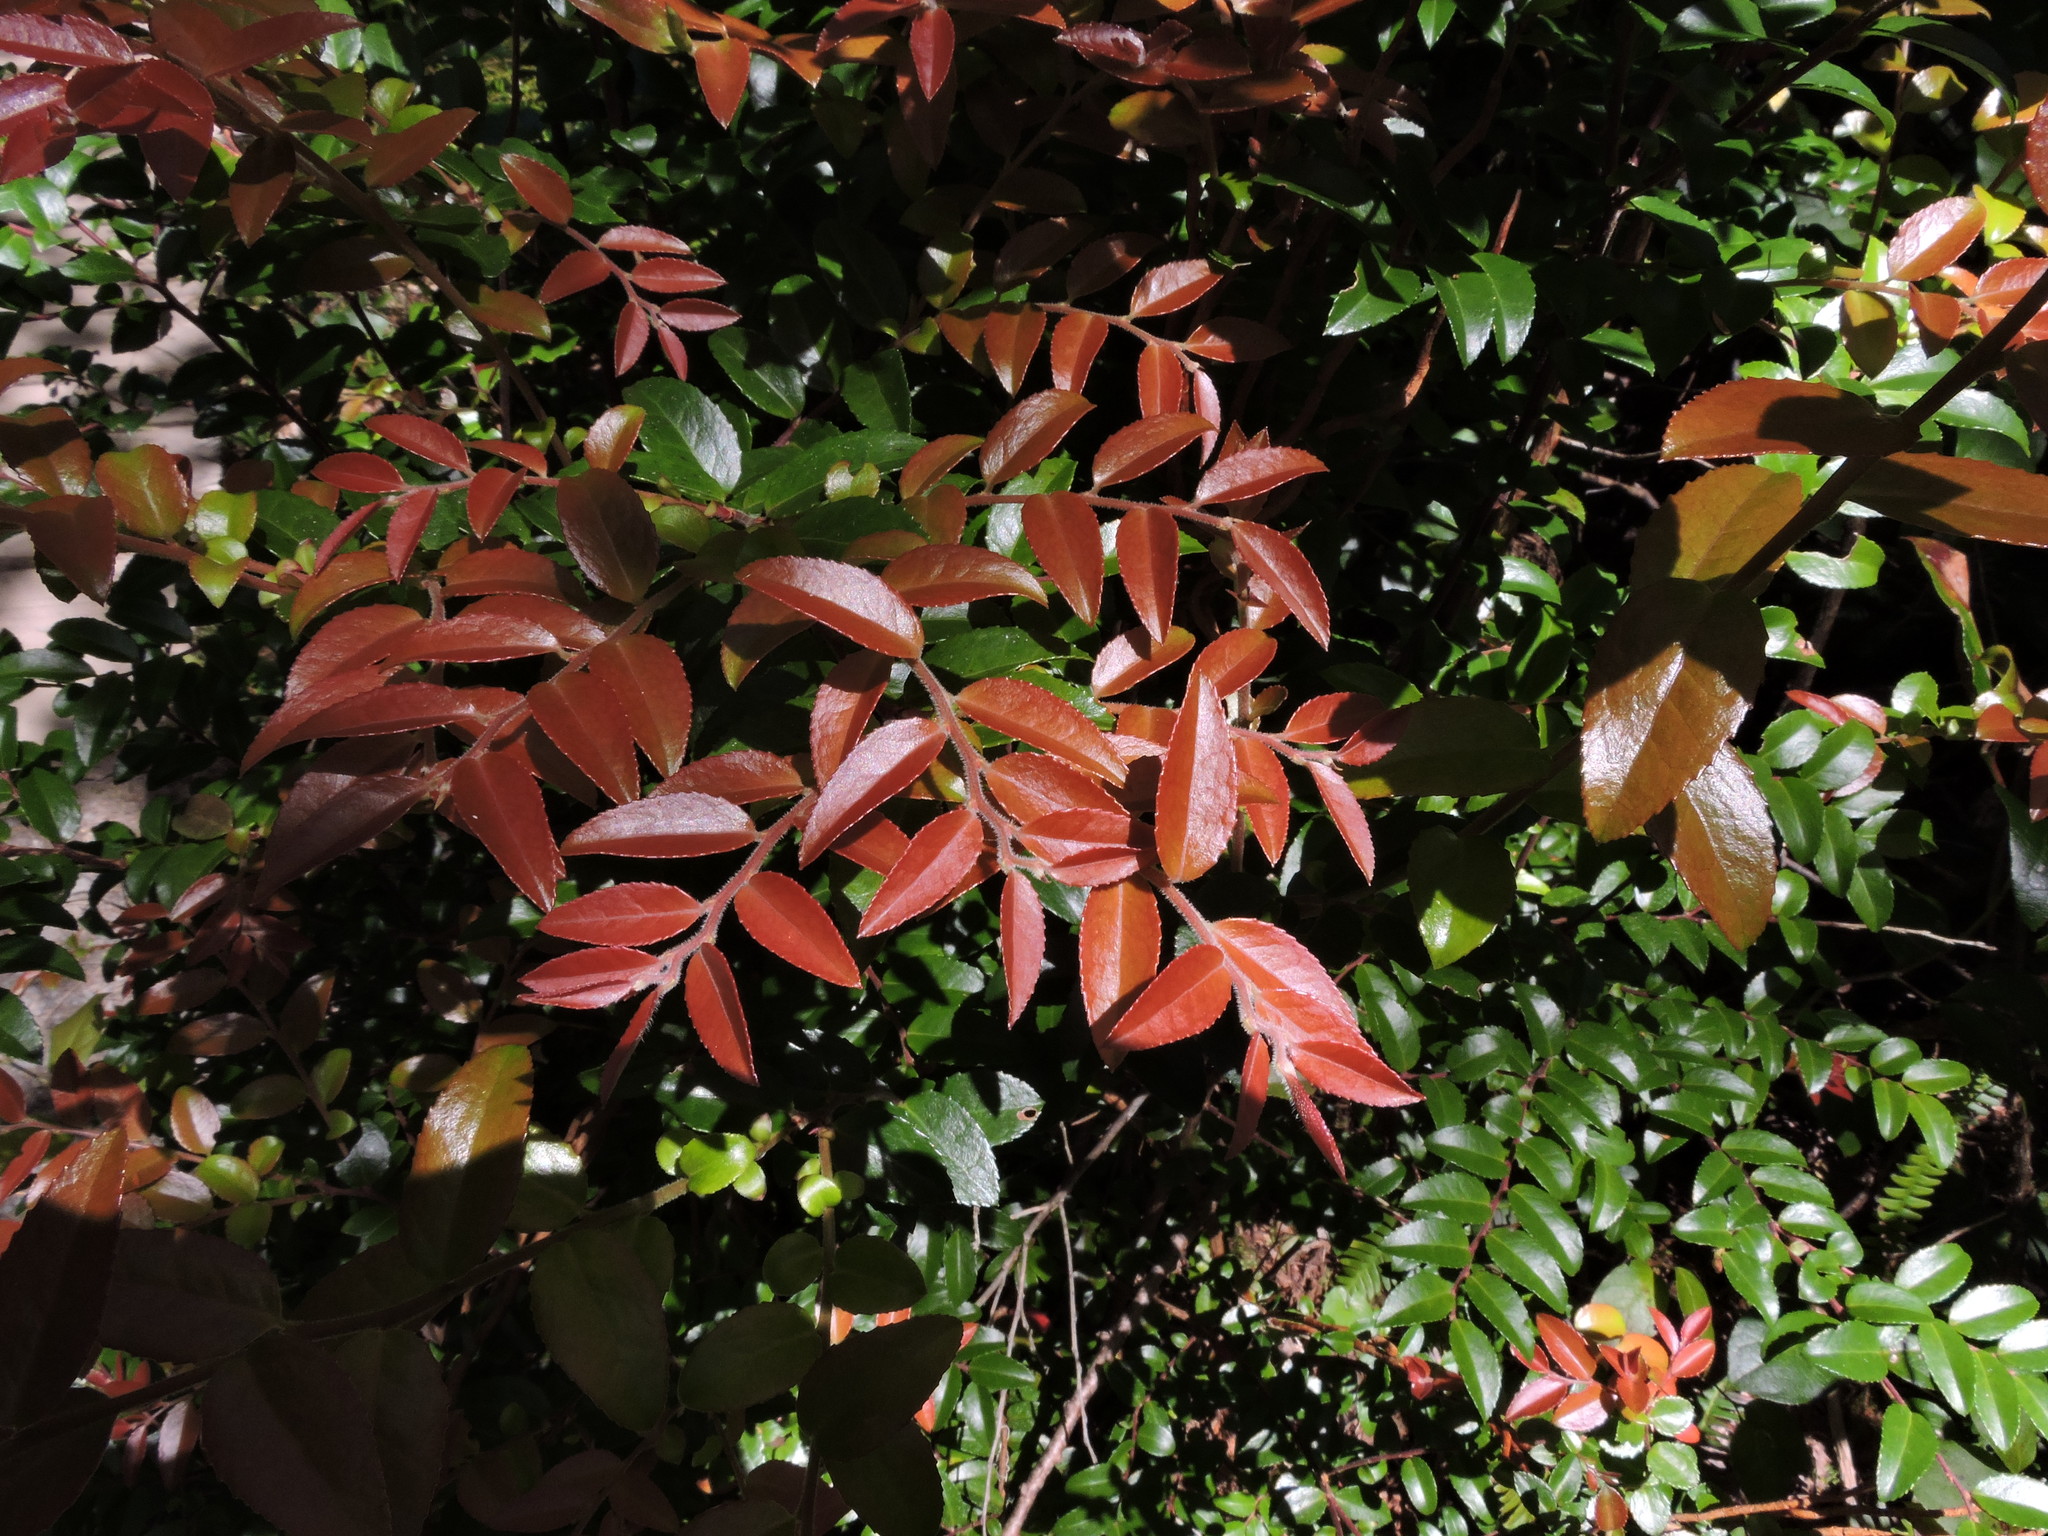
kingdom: Plantae
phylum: Tracheophyta
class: Magnoliopsida
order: Ericales
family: Ericaceae
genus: Vaccinium
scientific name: Vaccinium ovatum
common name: California-huckleberry
